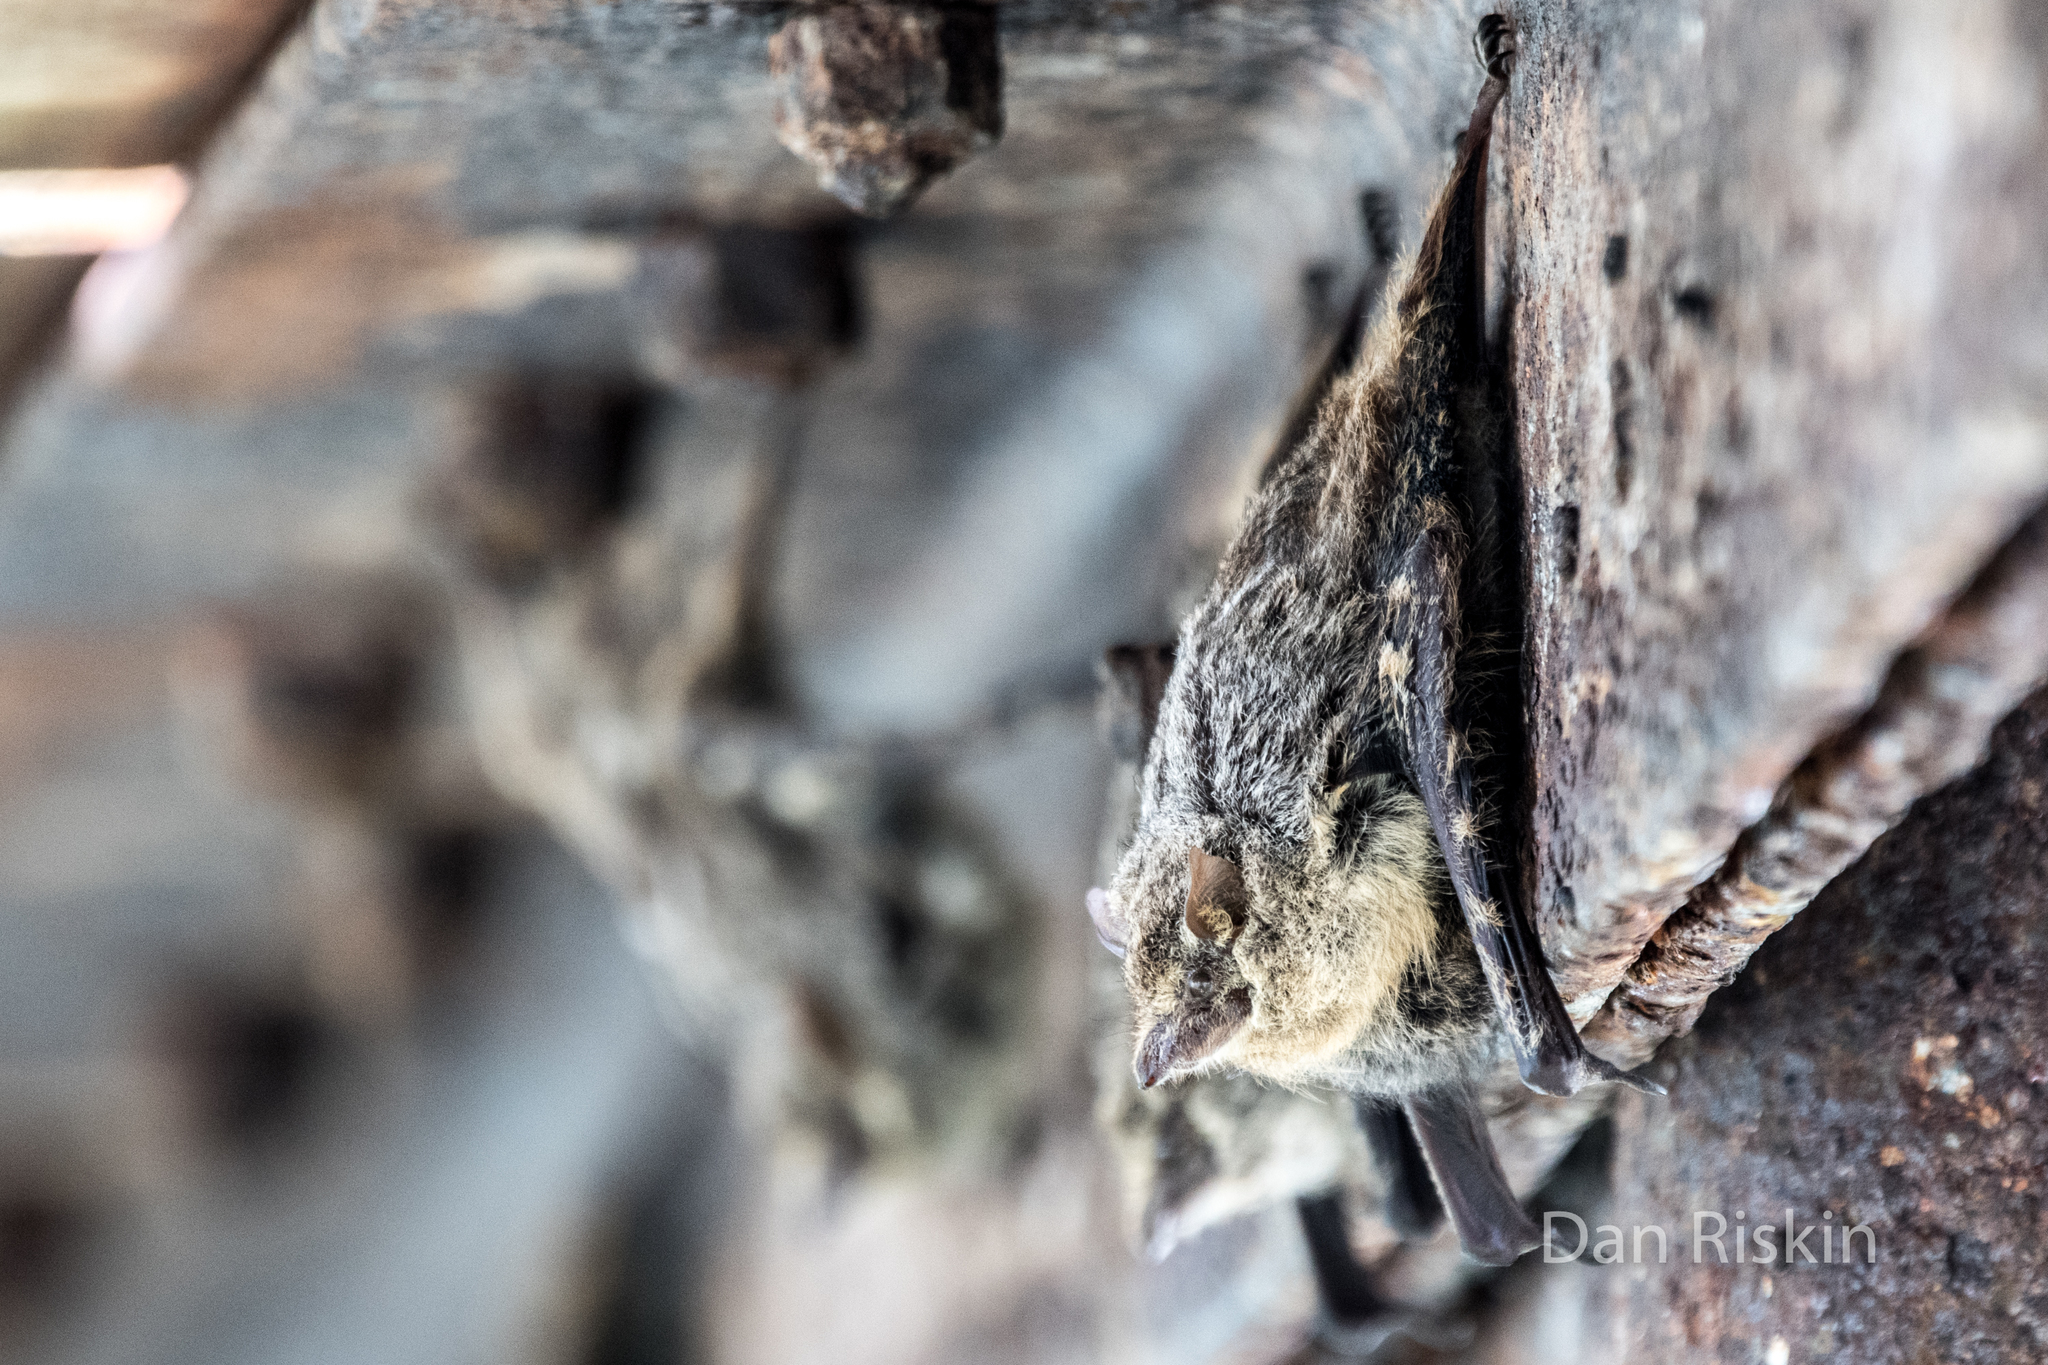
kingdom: Animalia
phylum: Chordata
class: Mammalia
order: Chiroptera
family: Emballonuridae
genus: Rhynchonycteris
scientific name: Rhynchonycteris naso
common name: Proboscis bat
